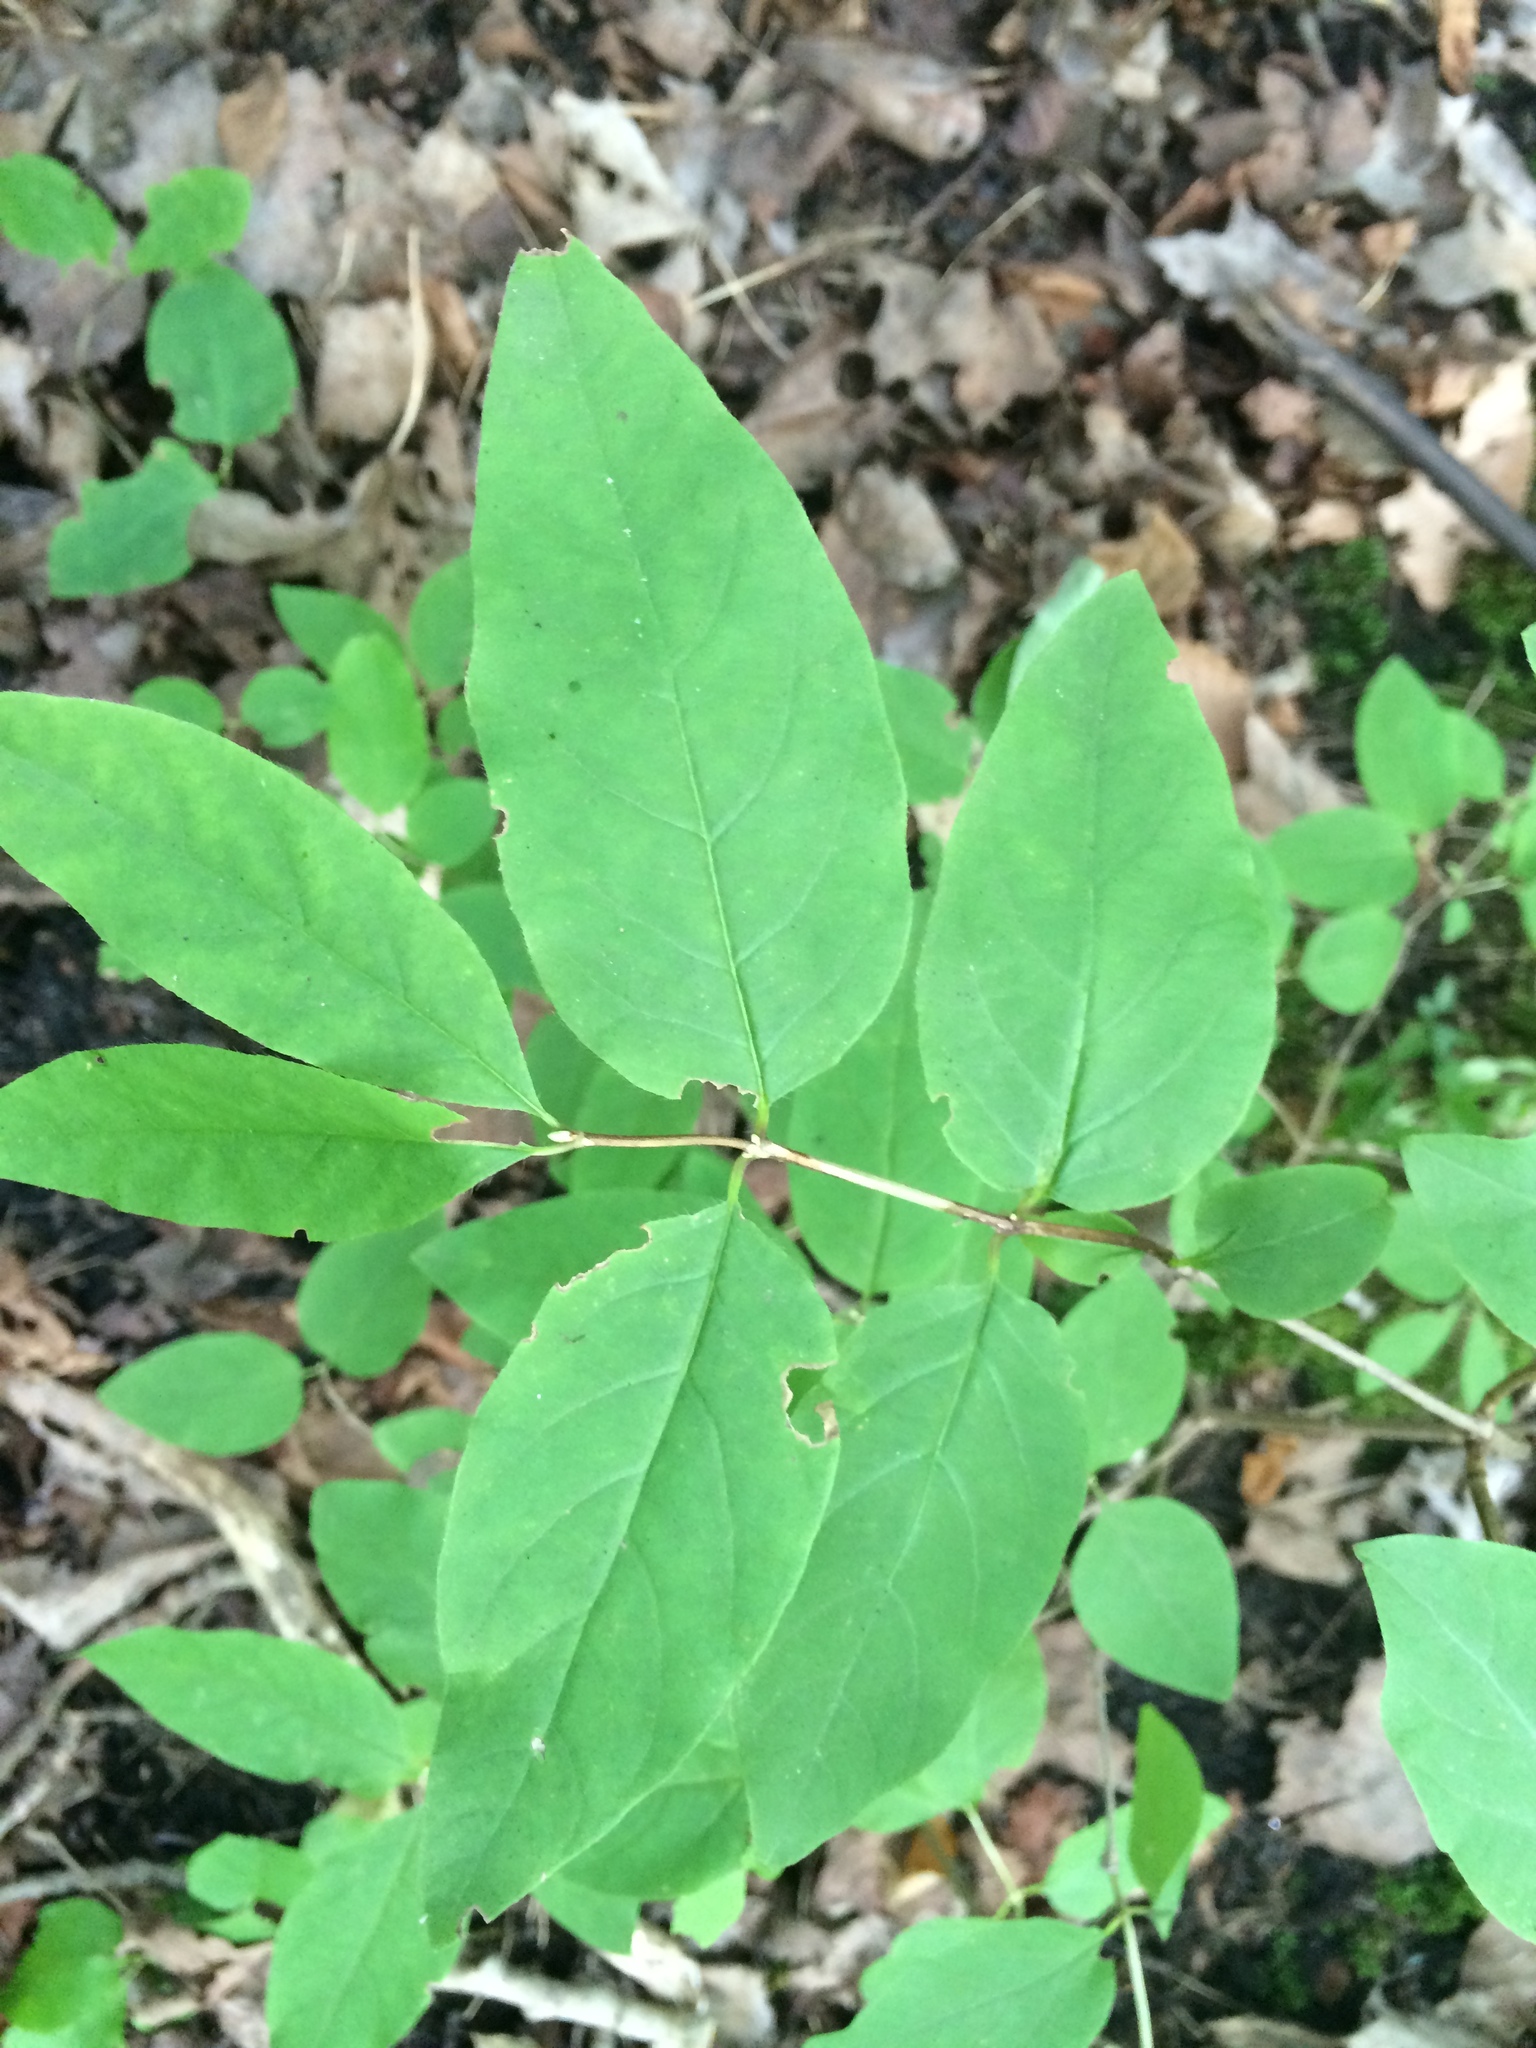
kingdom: Plantae
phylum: Tracheophyta
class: Magnoliopsida
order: Dipsacales
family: Caprifoliaceae
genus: Lonicera
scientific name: Lonicera canadensis
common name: American fly-honeysuckle
